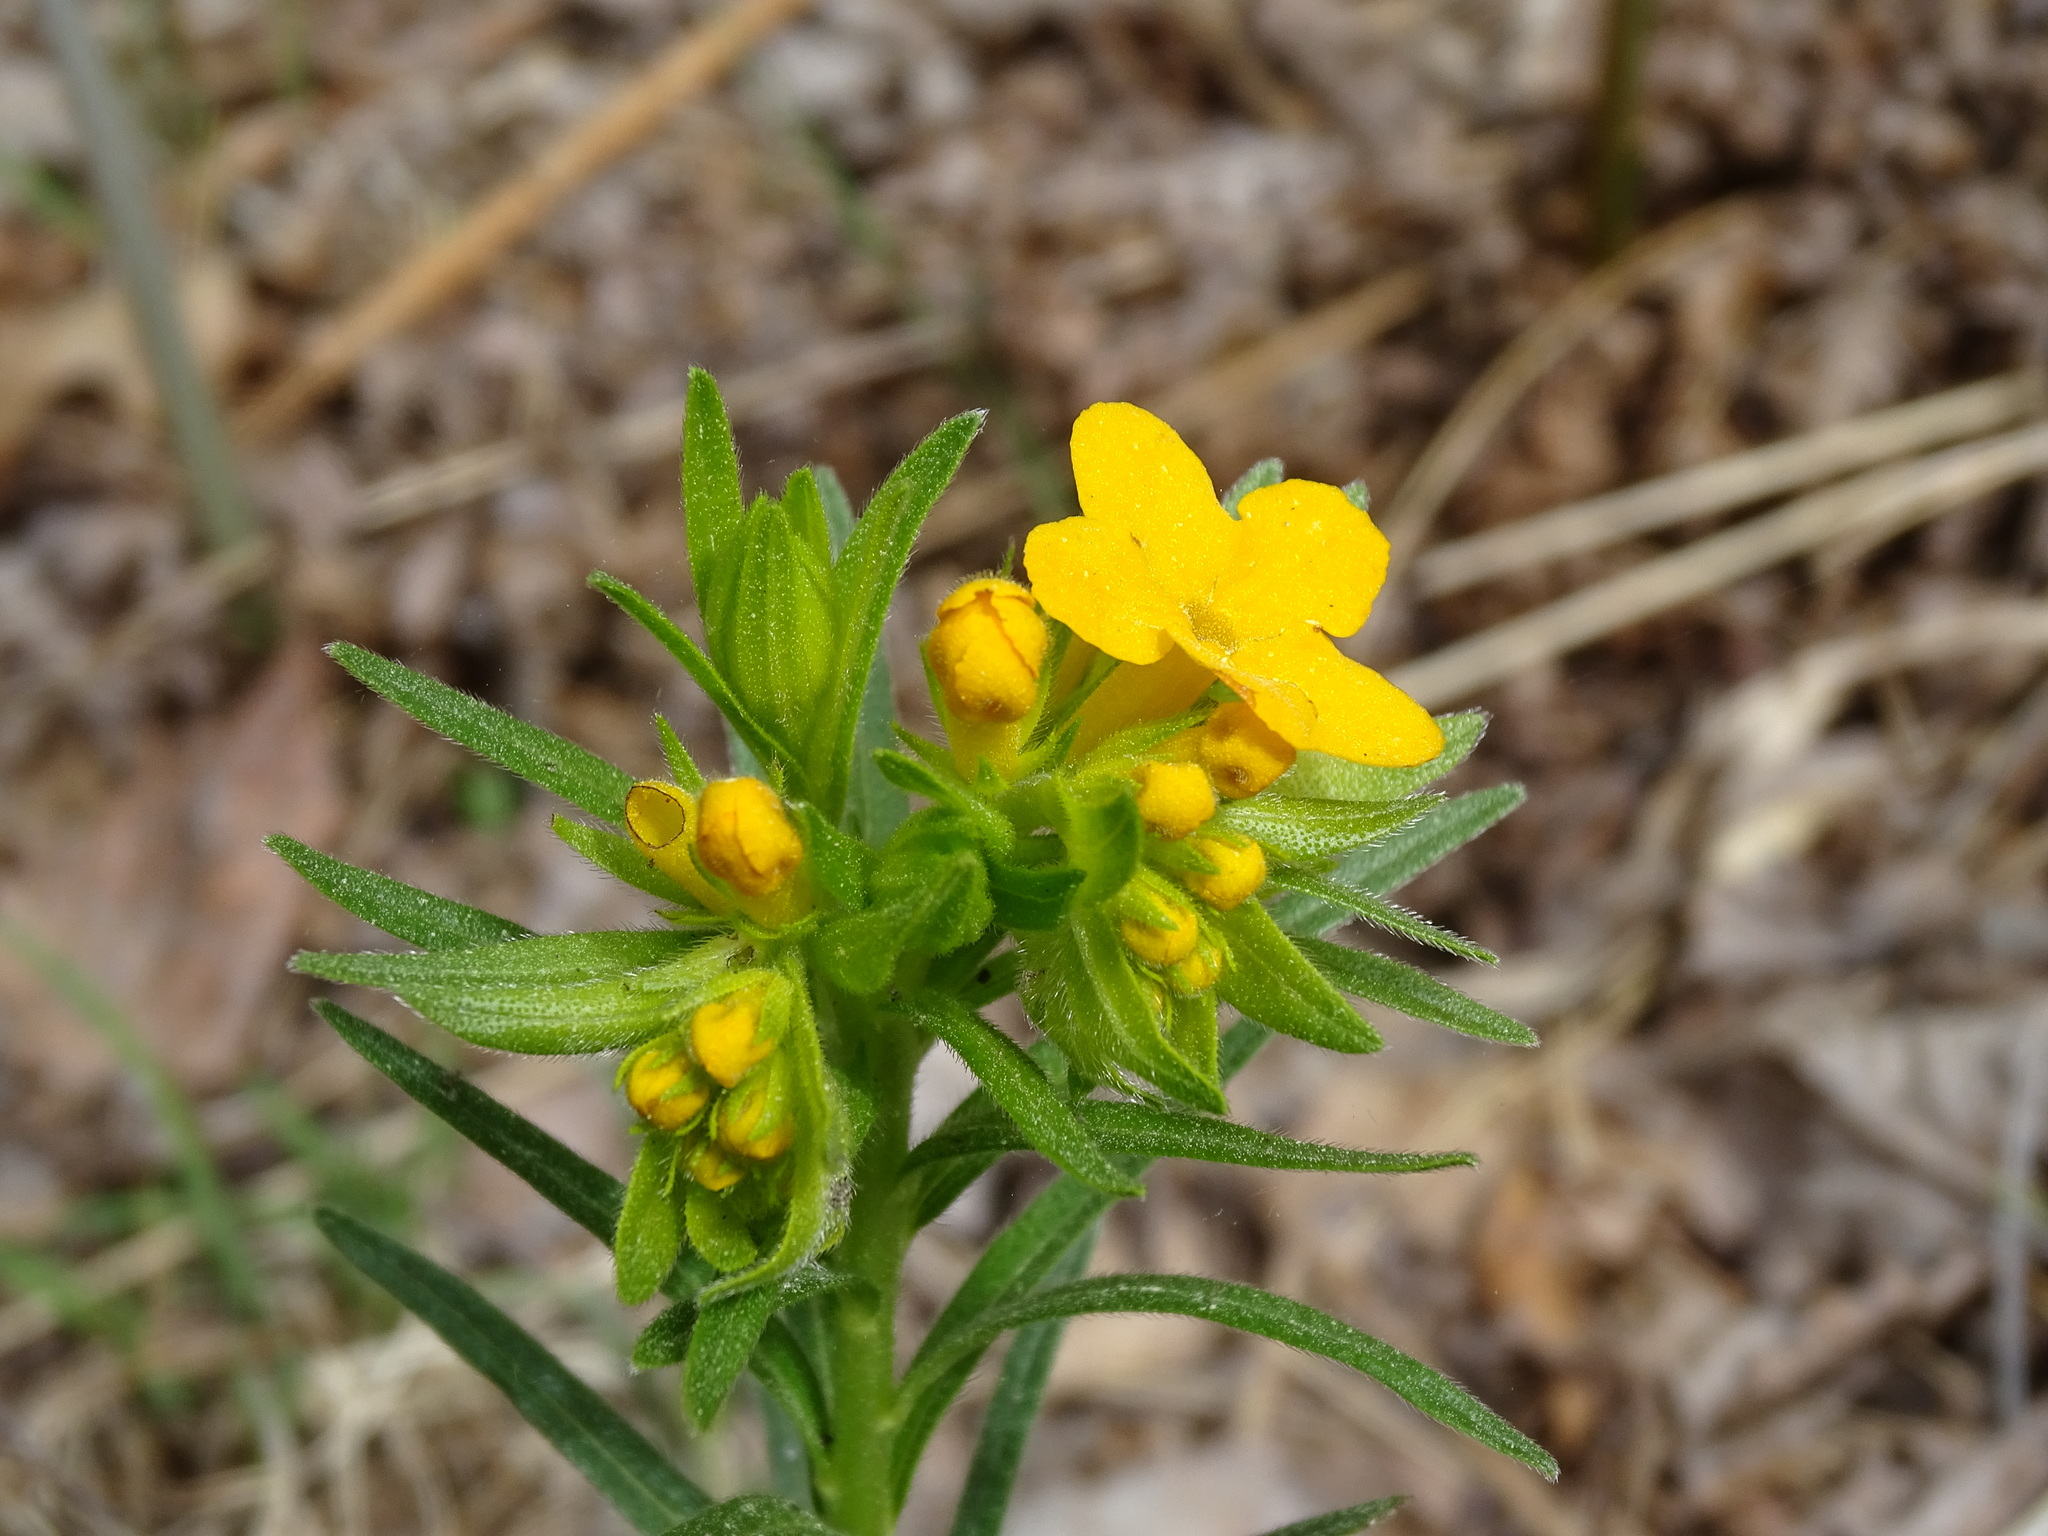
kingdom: Plantae
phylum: Tracheophyta
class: Magnoliopsida
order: Boraginales
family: Boraginaceae
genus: Lithospermum
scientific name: Lithospermum caroliniense
